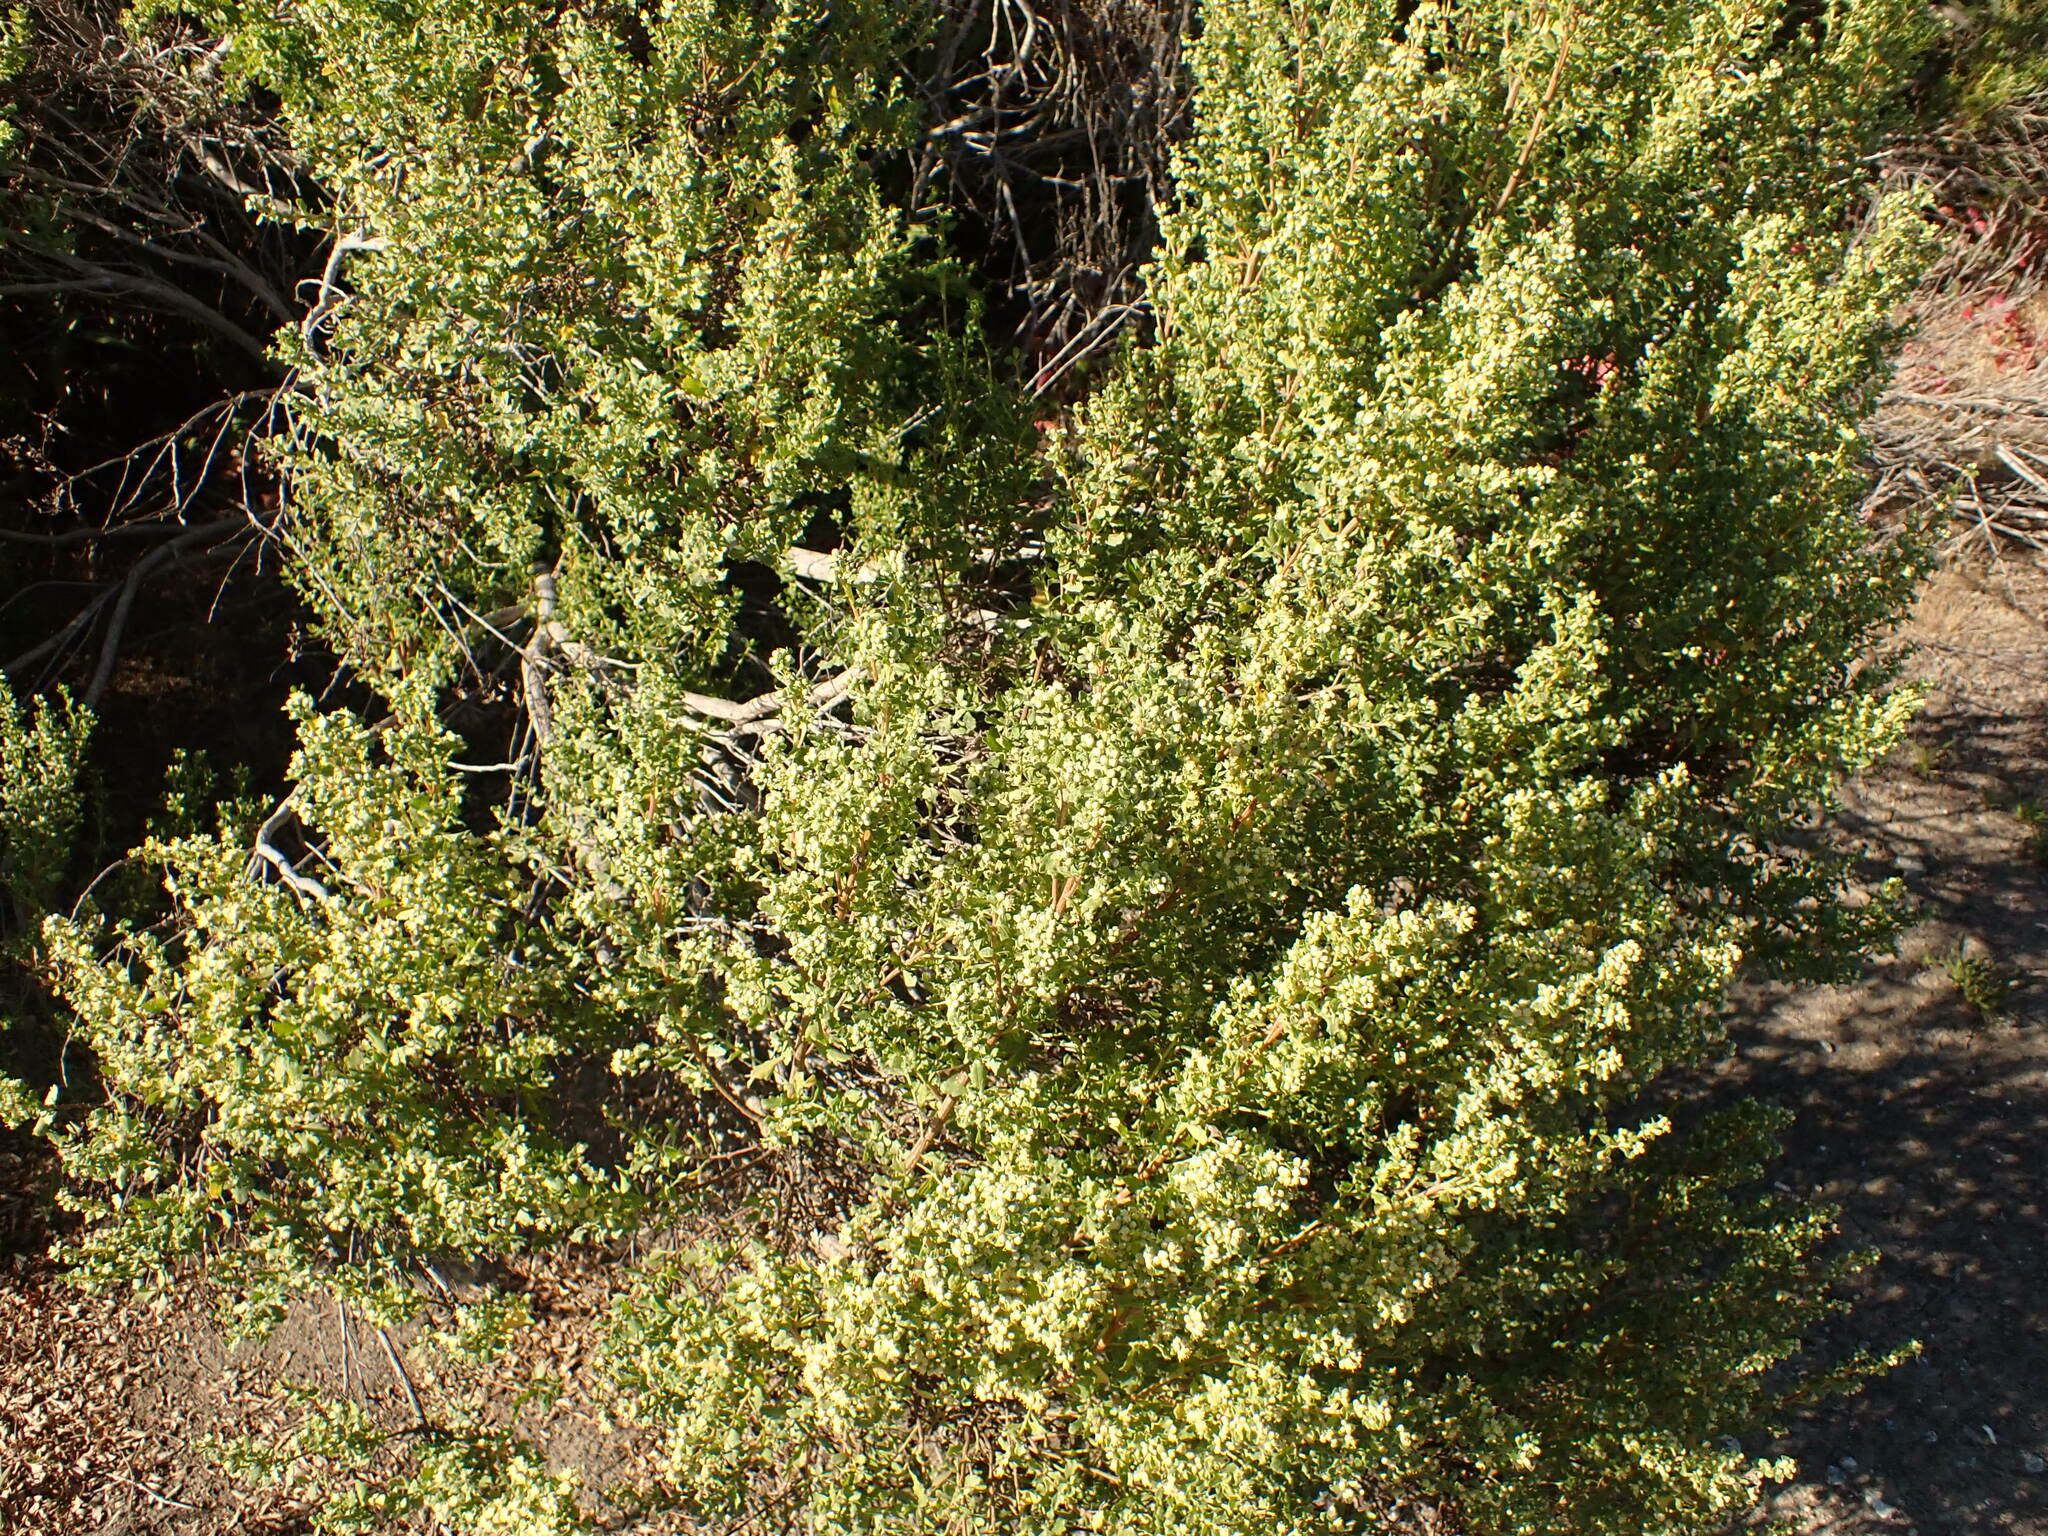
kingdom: Plantae
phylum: Tracheophyta
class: Magnoliopsida
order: Asterales
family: Asteraceae
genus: Baccharis
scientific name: Baccharis pilularis
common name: Coyotebrush
